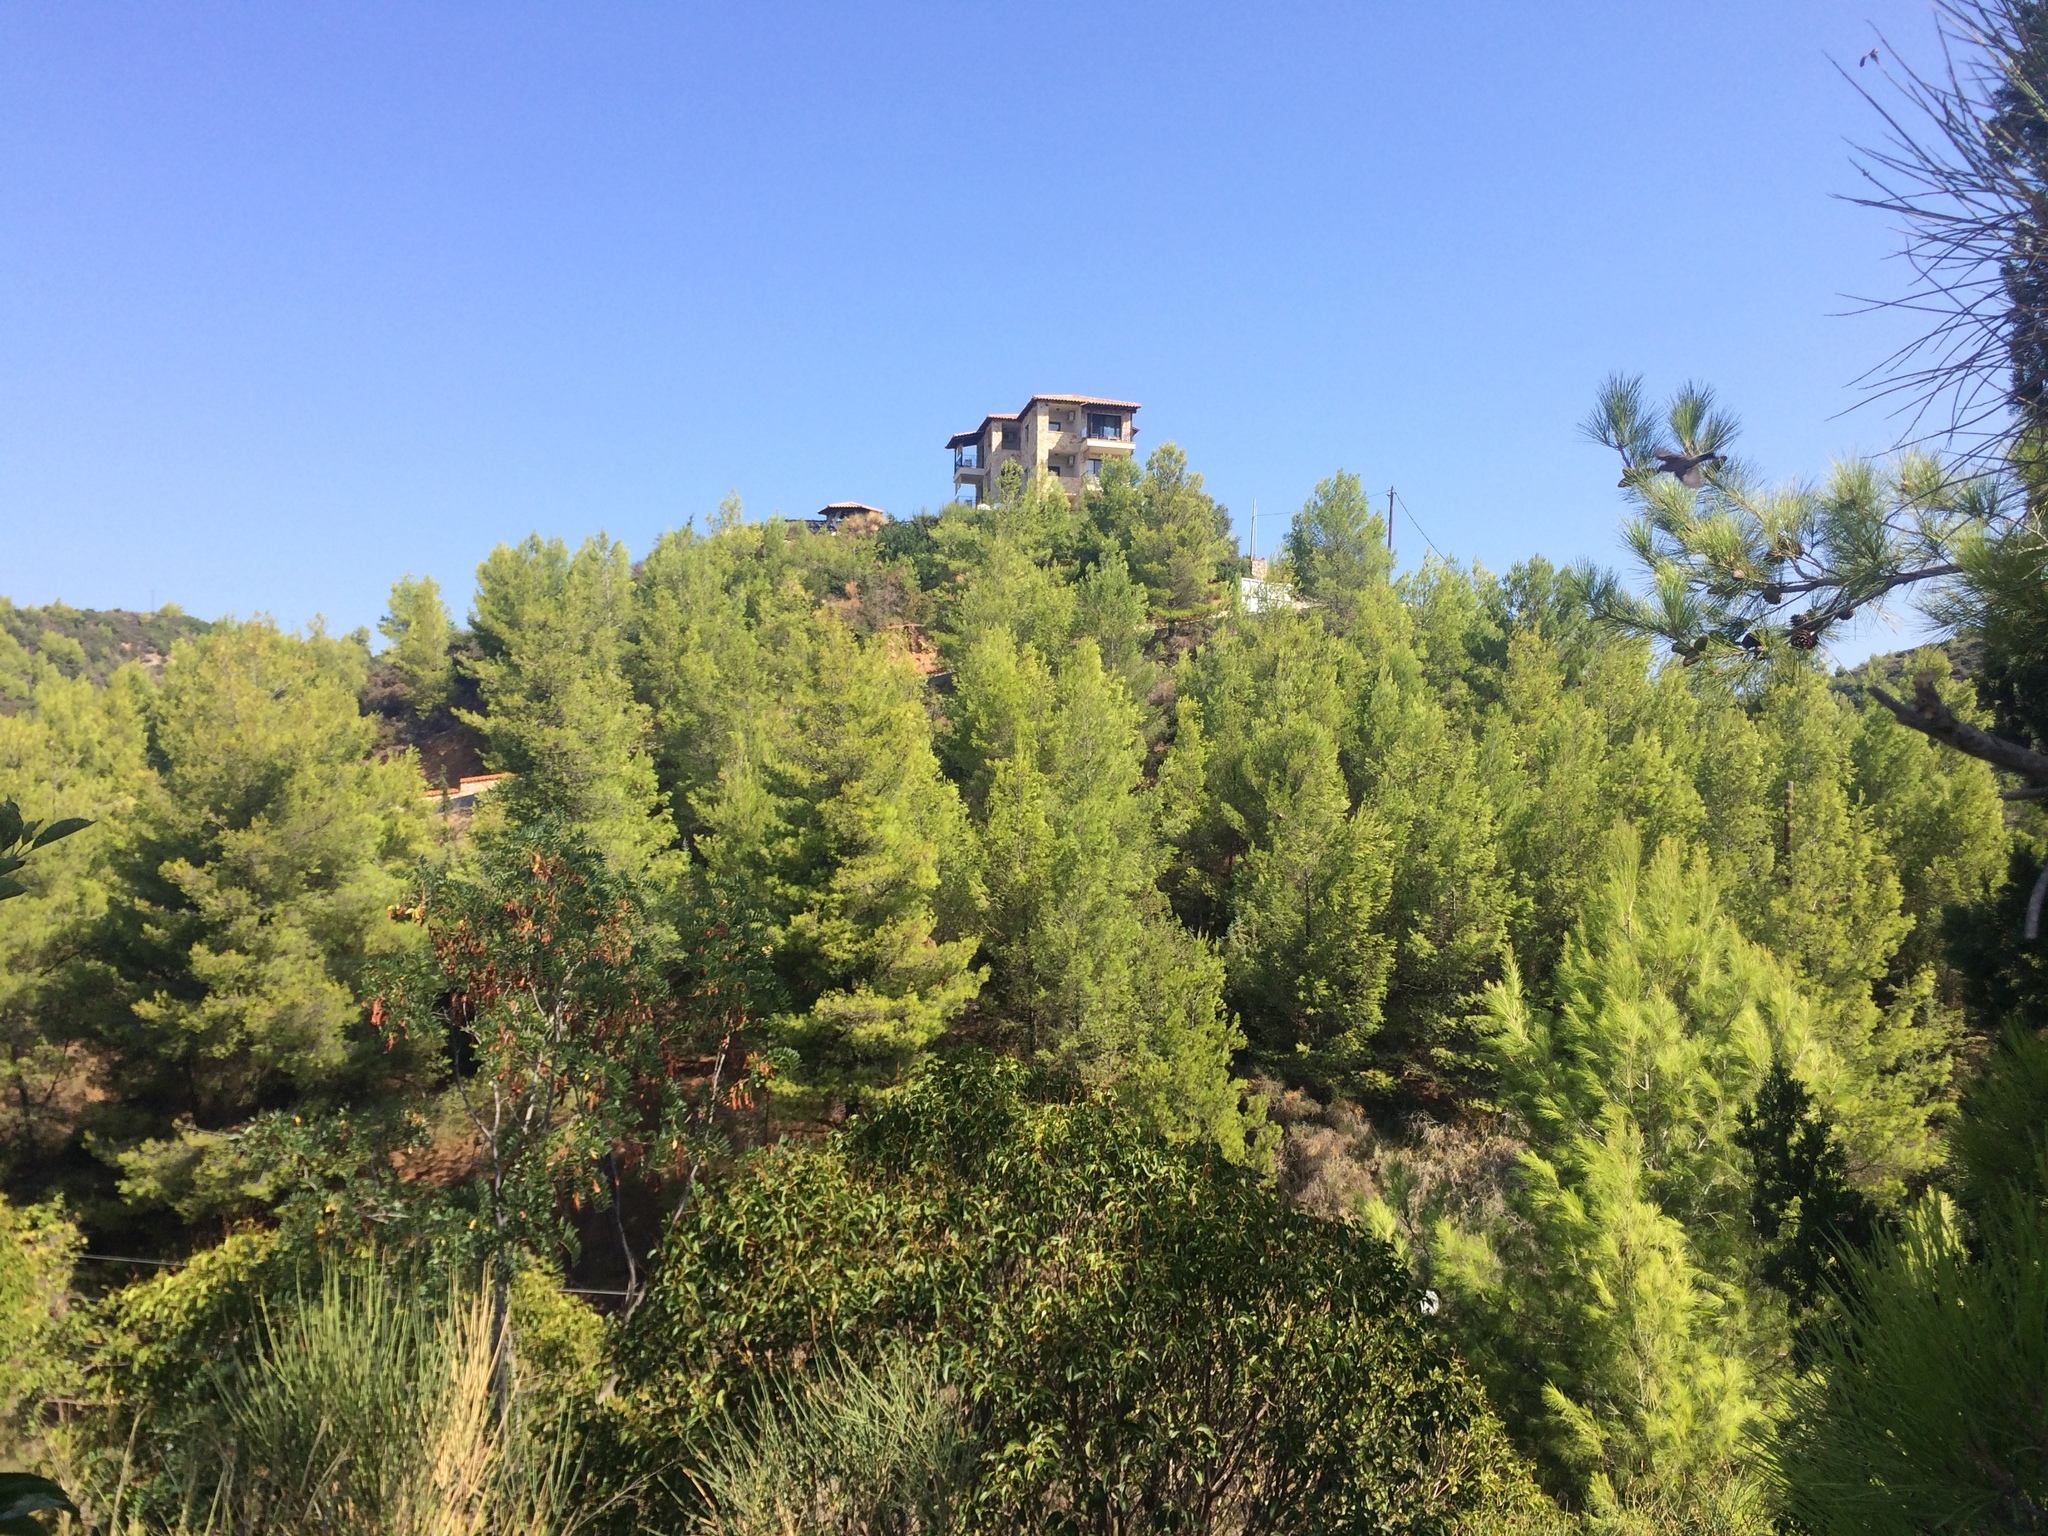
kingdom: Plantae
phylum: Tracheophyta
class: Pinopsida
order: Pinales
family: Pinaceae
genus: Pinus
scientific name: Pinus halepensis
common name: Aleppo pine
